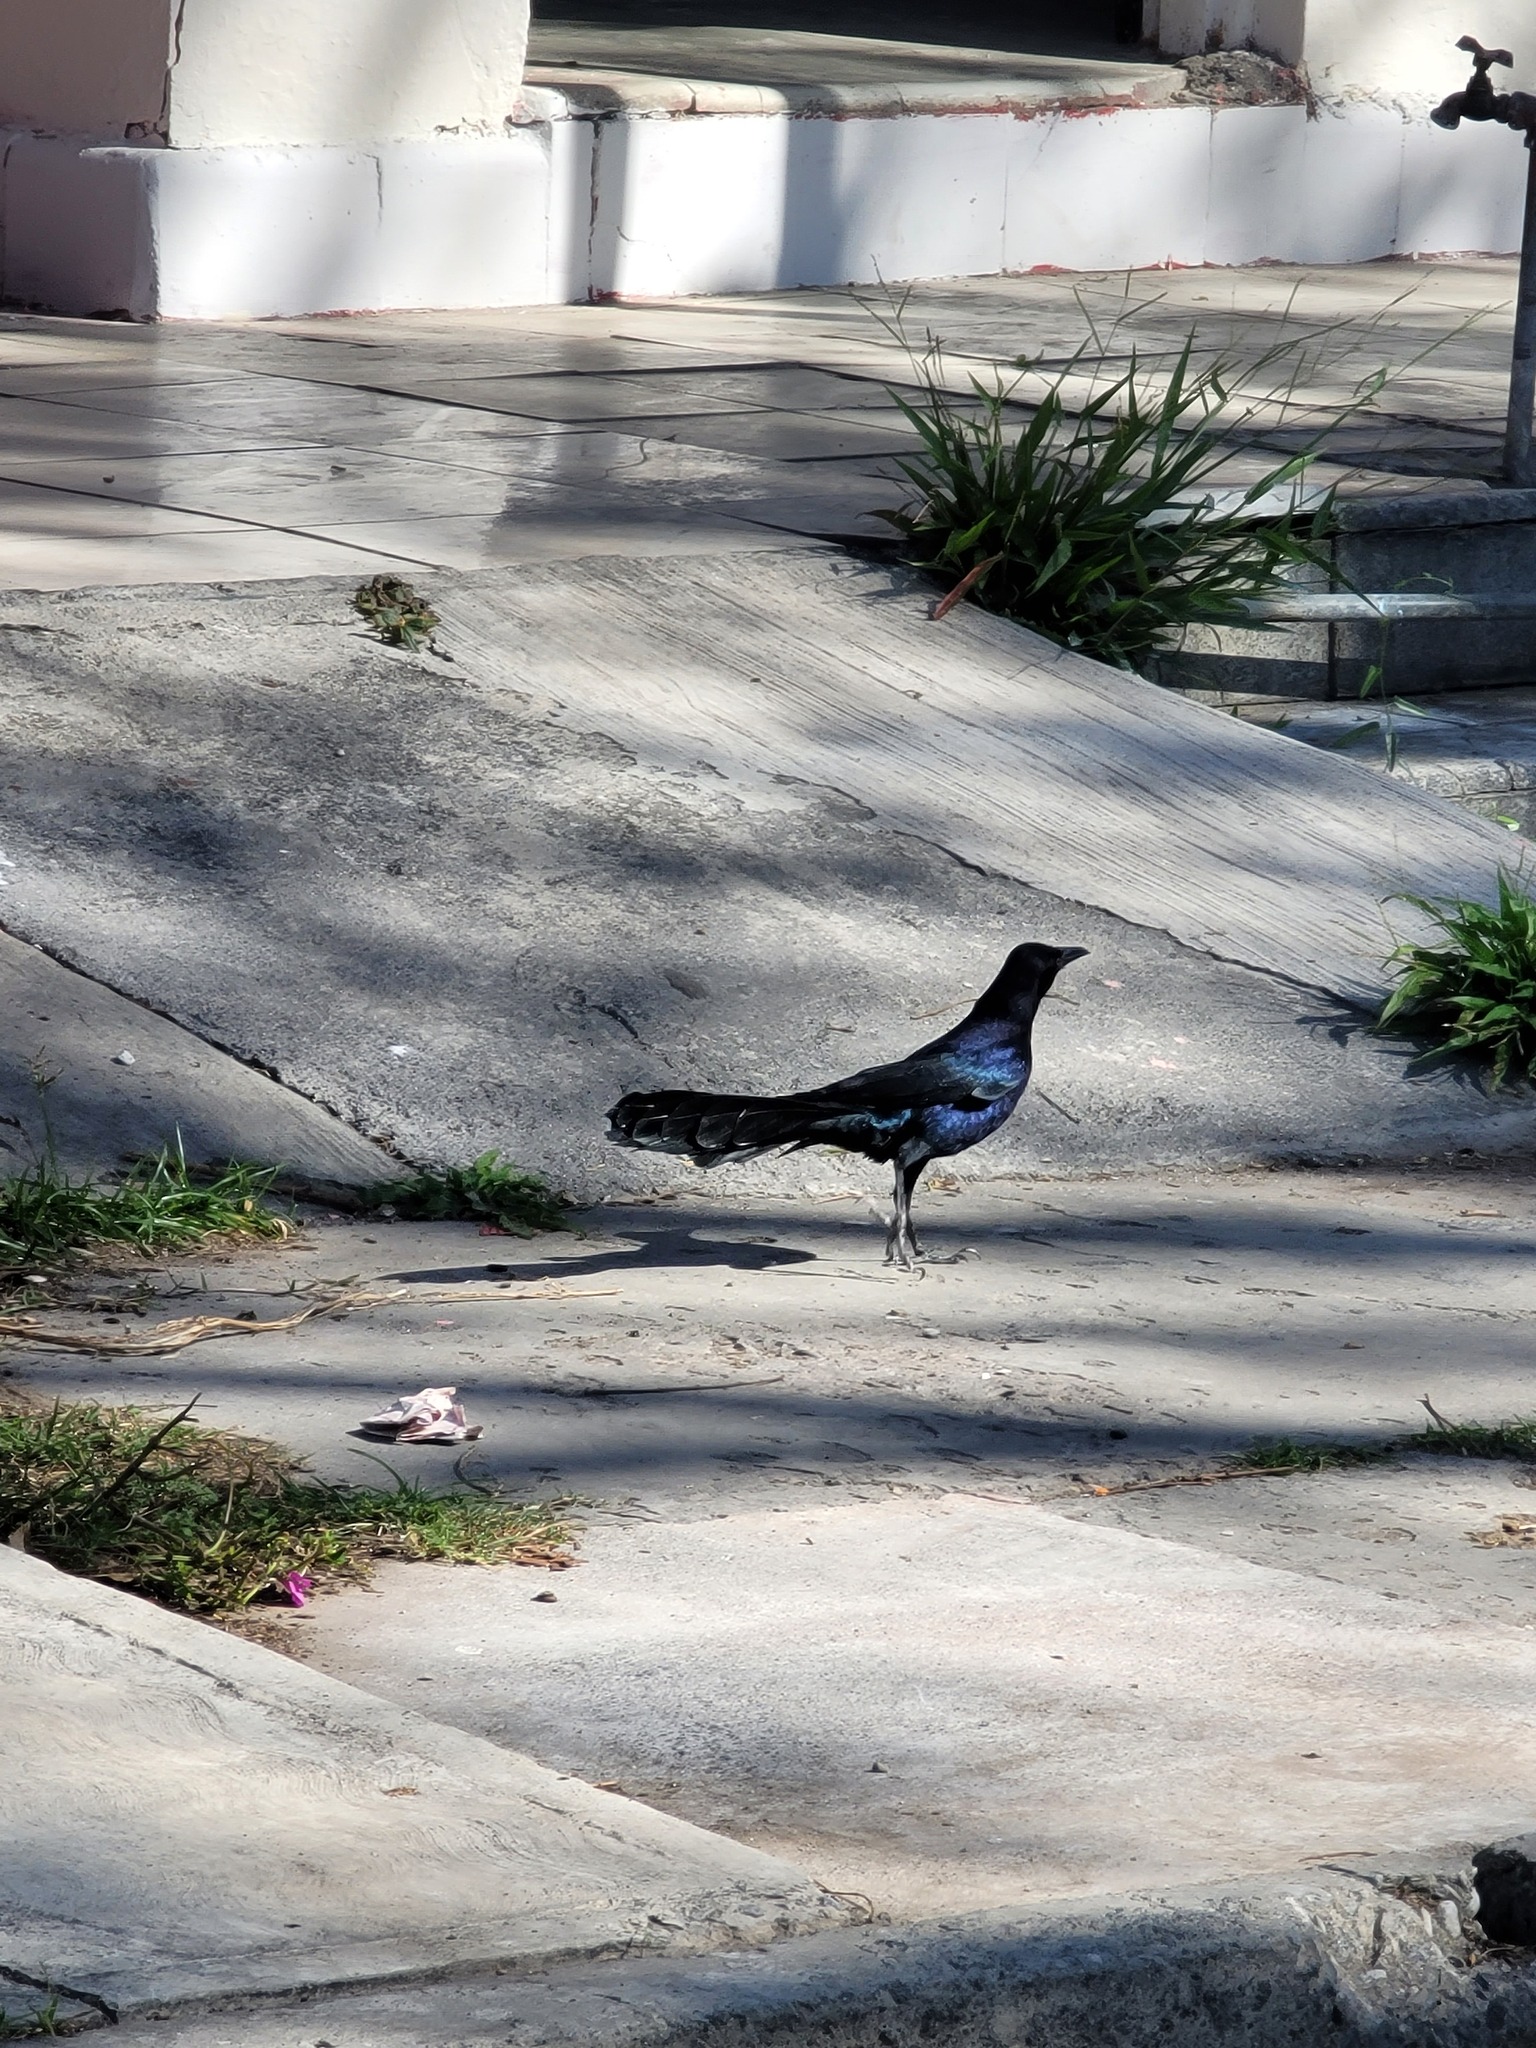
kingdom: Animalia
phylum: Chordata
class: Aves
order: Passeriformes
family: Icteridae
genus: Quiscalus
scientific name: Quiscalus mexicanus
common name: Great-tailed grackle
